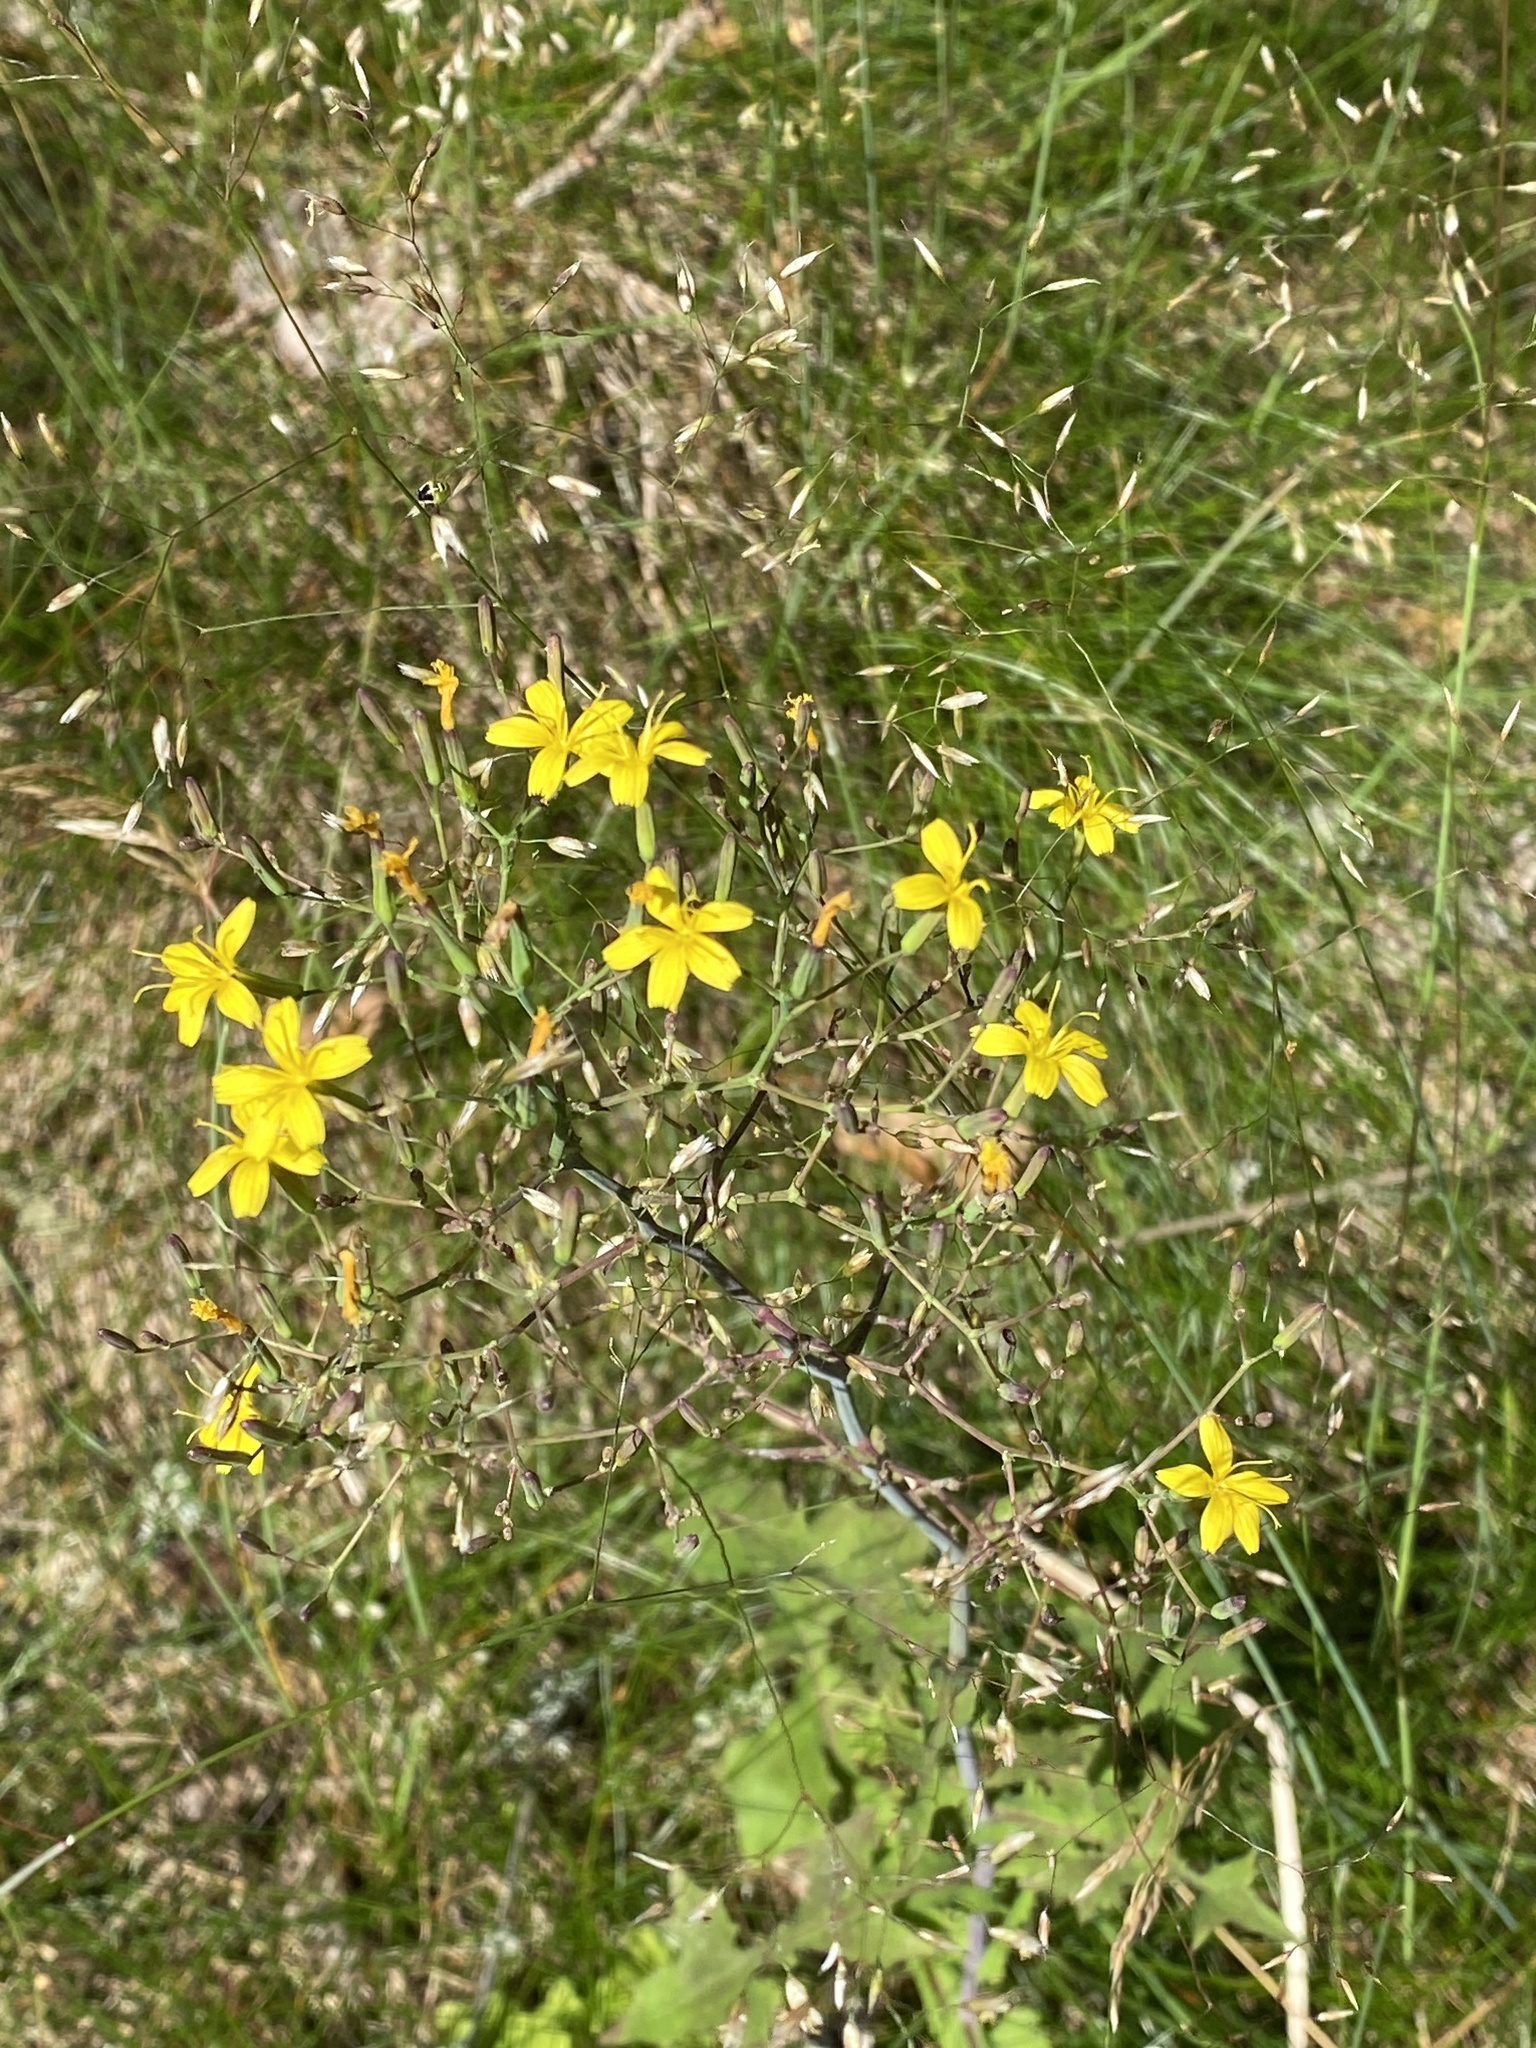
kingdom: Plantae
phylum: Tracheophyta
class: Magnoliopsida
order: Asterales
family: Asteraceae
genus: Mycelis
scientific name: Mycelis muralis
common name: Wall lettuce
